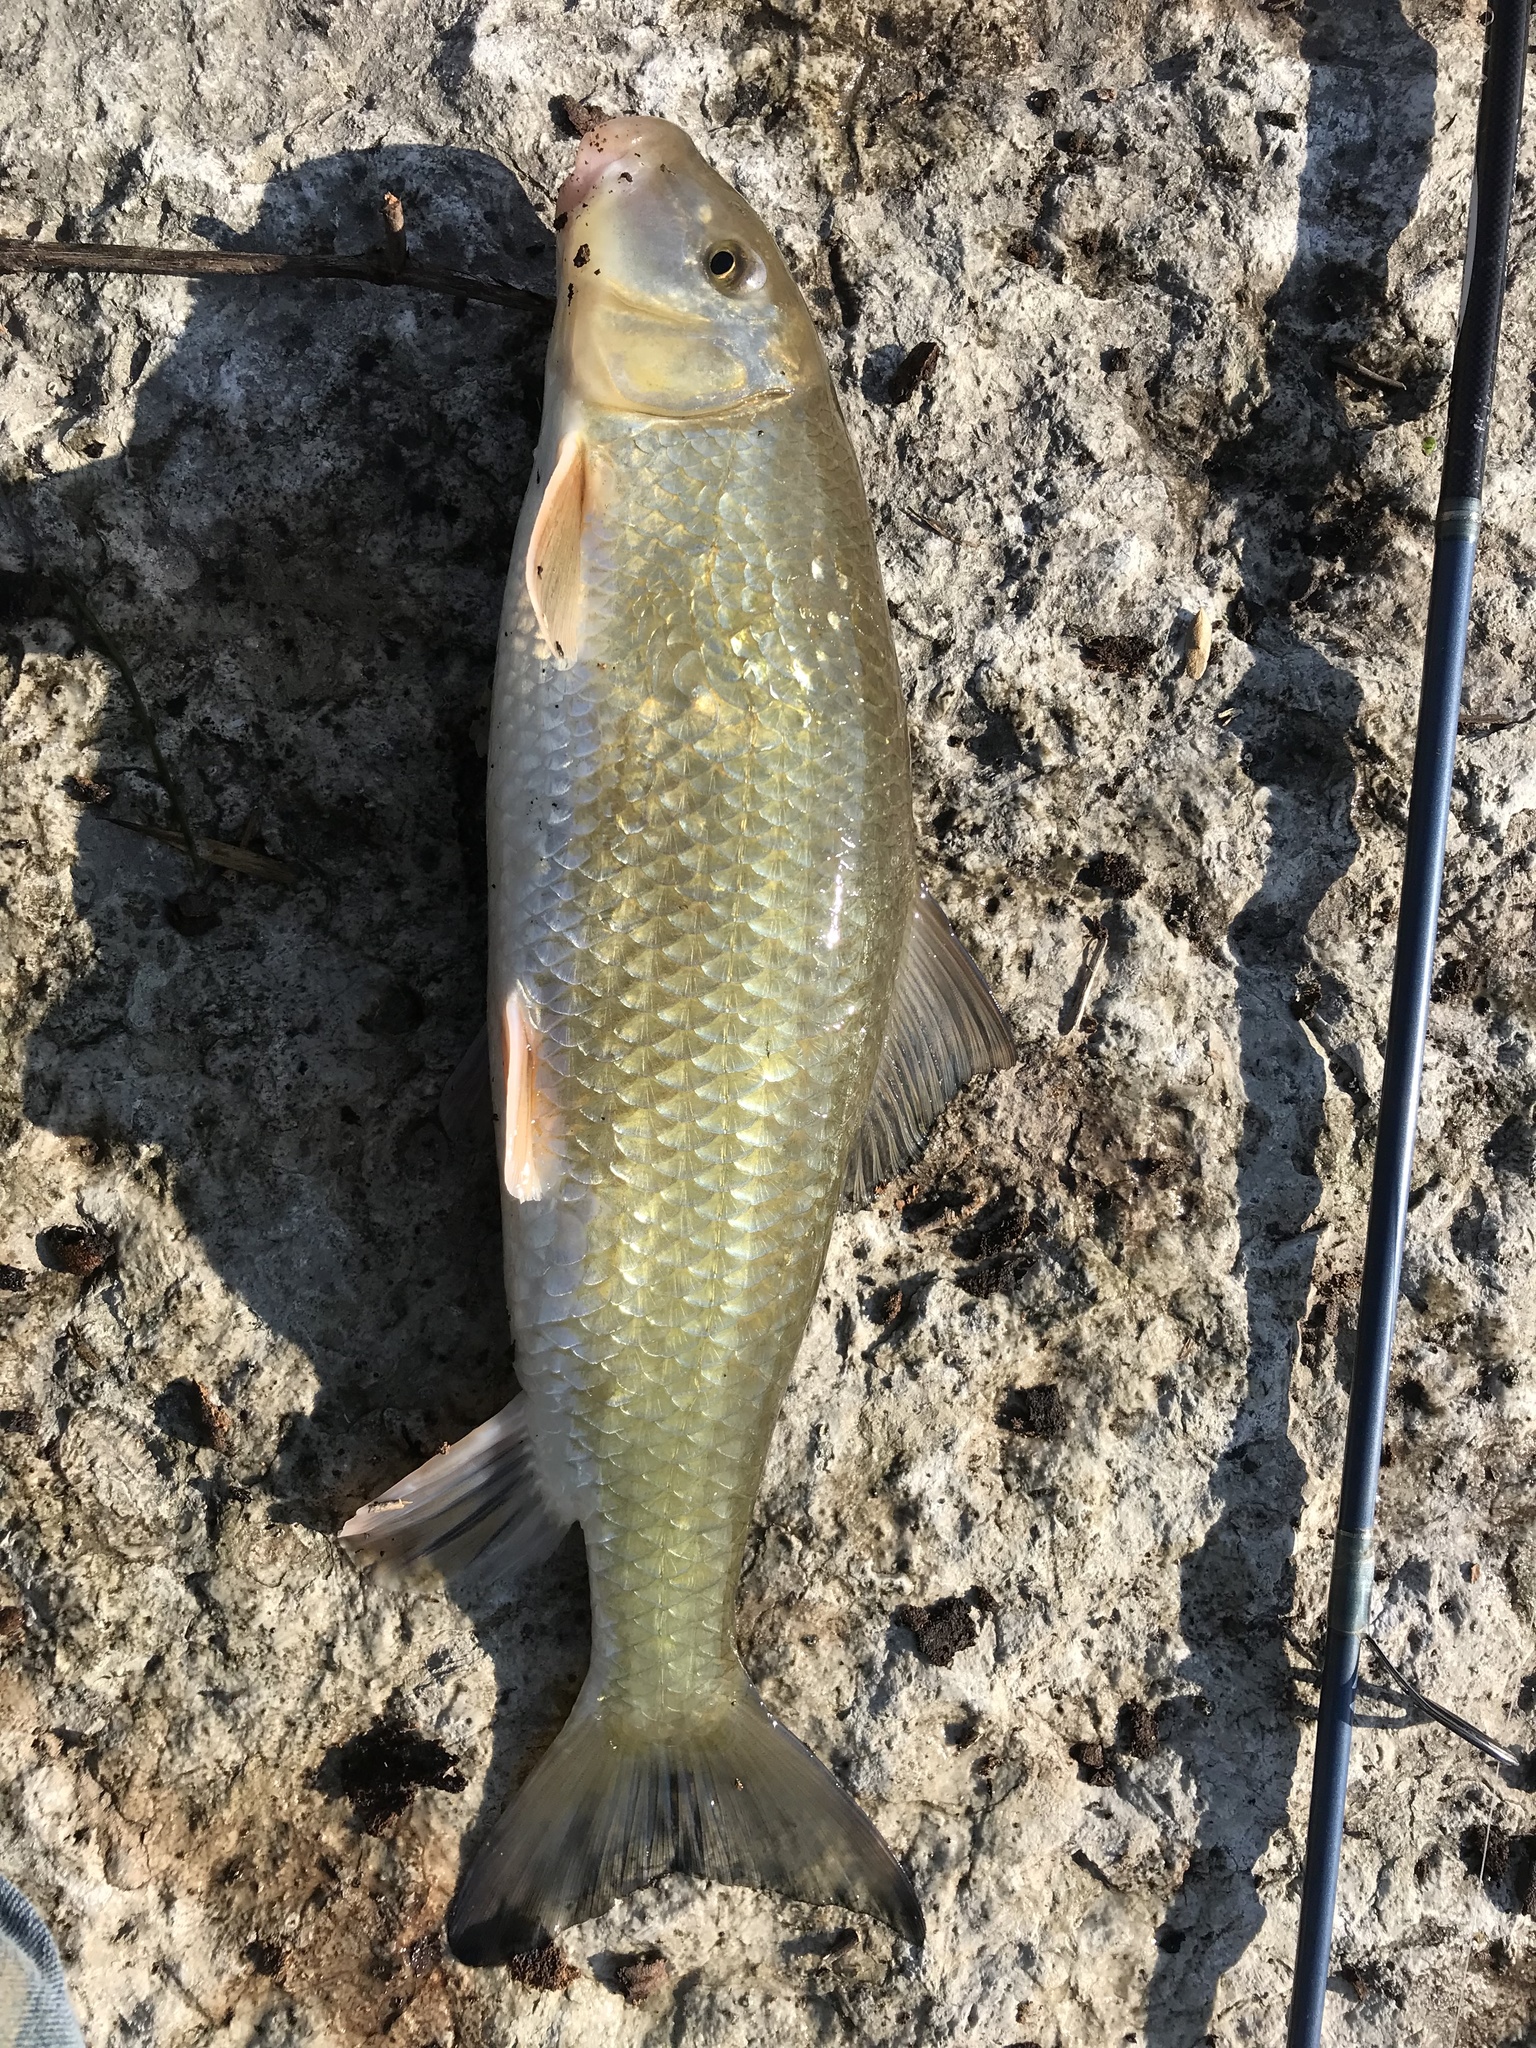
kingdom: Animalia
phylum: Chordata
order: Cypriniformes
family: Catostomidae
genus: Moxostoma
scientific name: Moxostoma duquesnii
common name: Black redhorse
